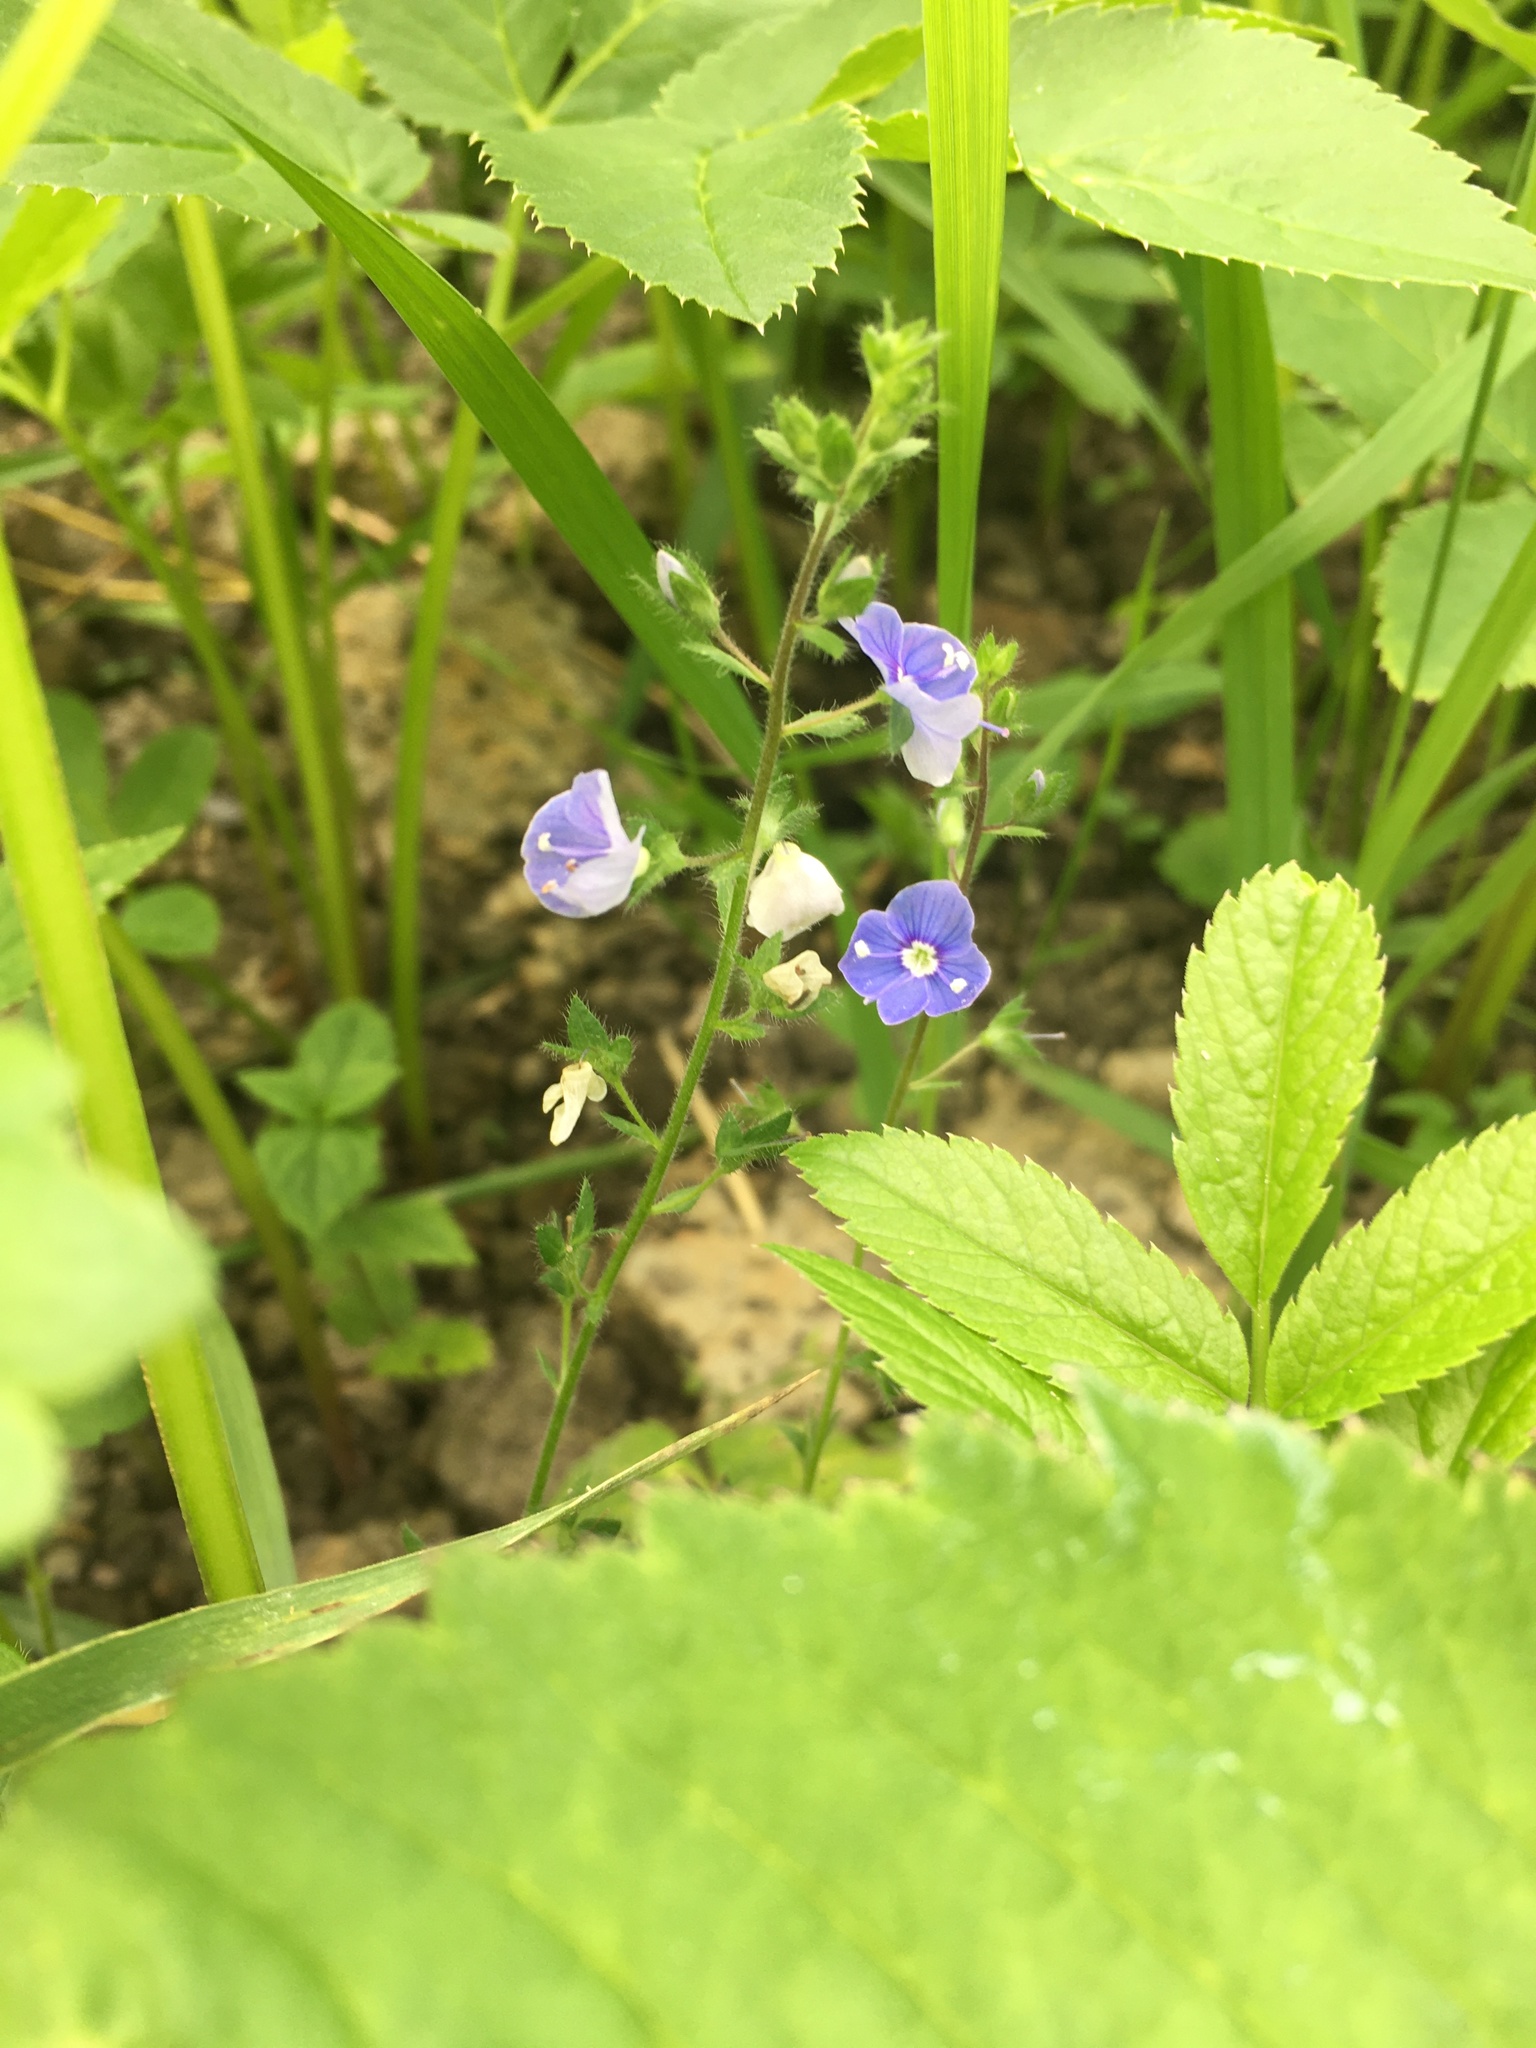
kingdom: Plantae
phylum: Tracheophyta
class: Magnoliopsida
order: Lamiales
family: Plantaginaceae
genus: Veronica
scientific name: Veronica chamaedrys
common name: Germander speedwell
